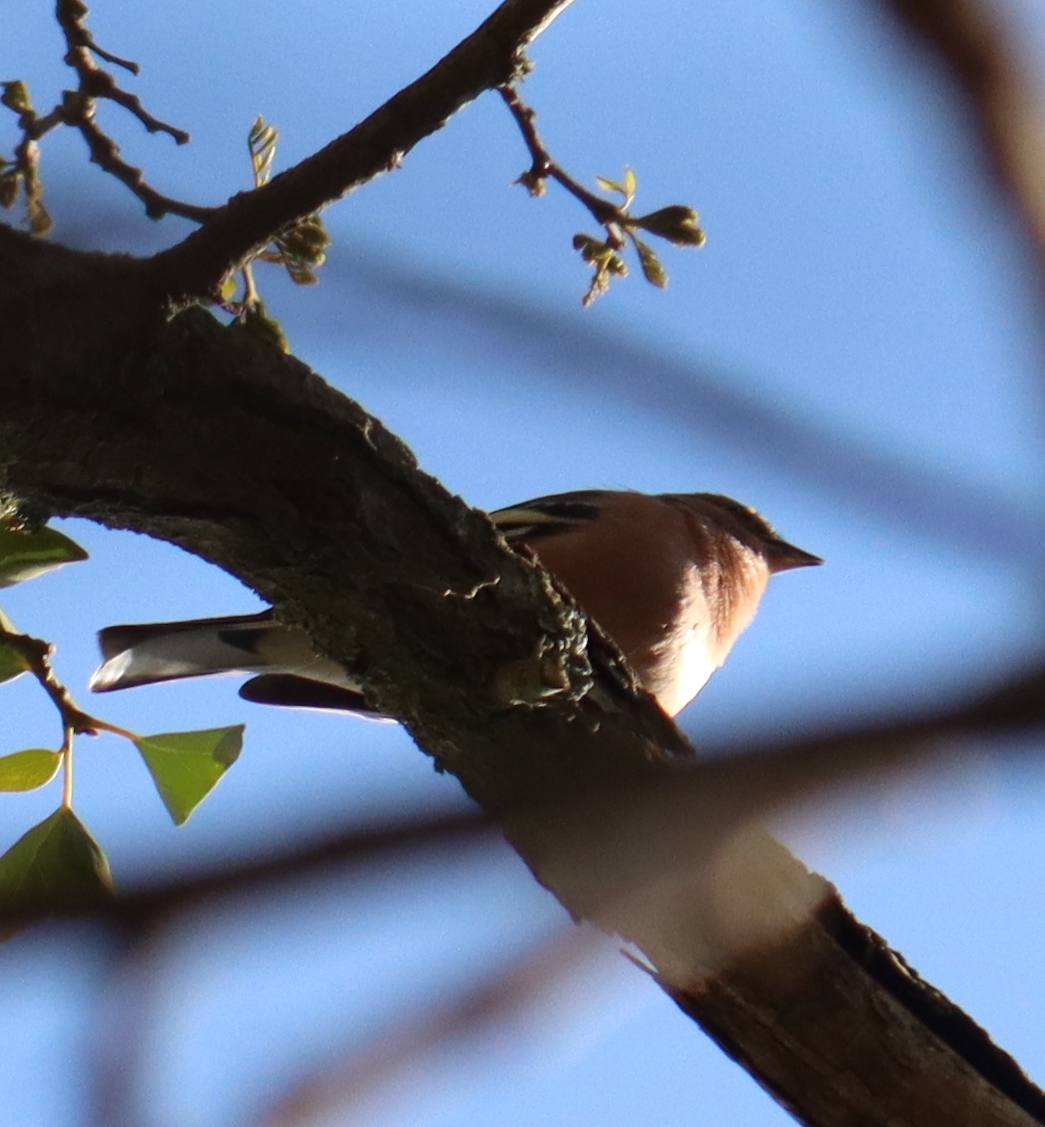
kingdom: Animalia
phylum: Chordata
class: Aves
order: Passeriformes
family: Fringillidae
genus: Fringilla
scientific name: Fringilla coelebs
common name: Common chaffinch
